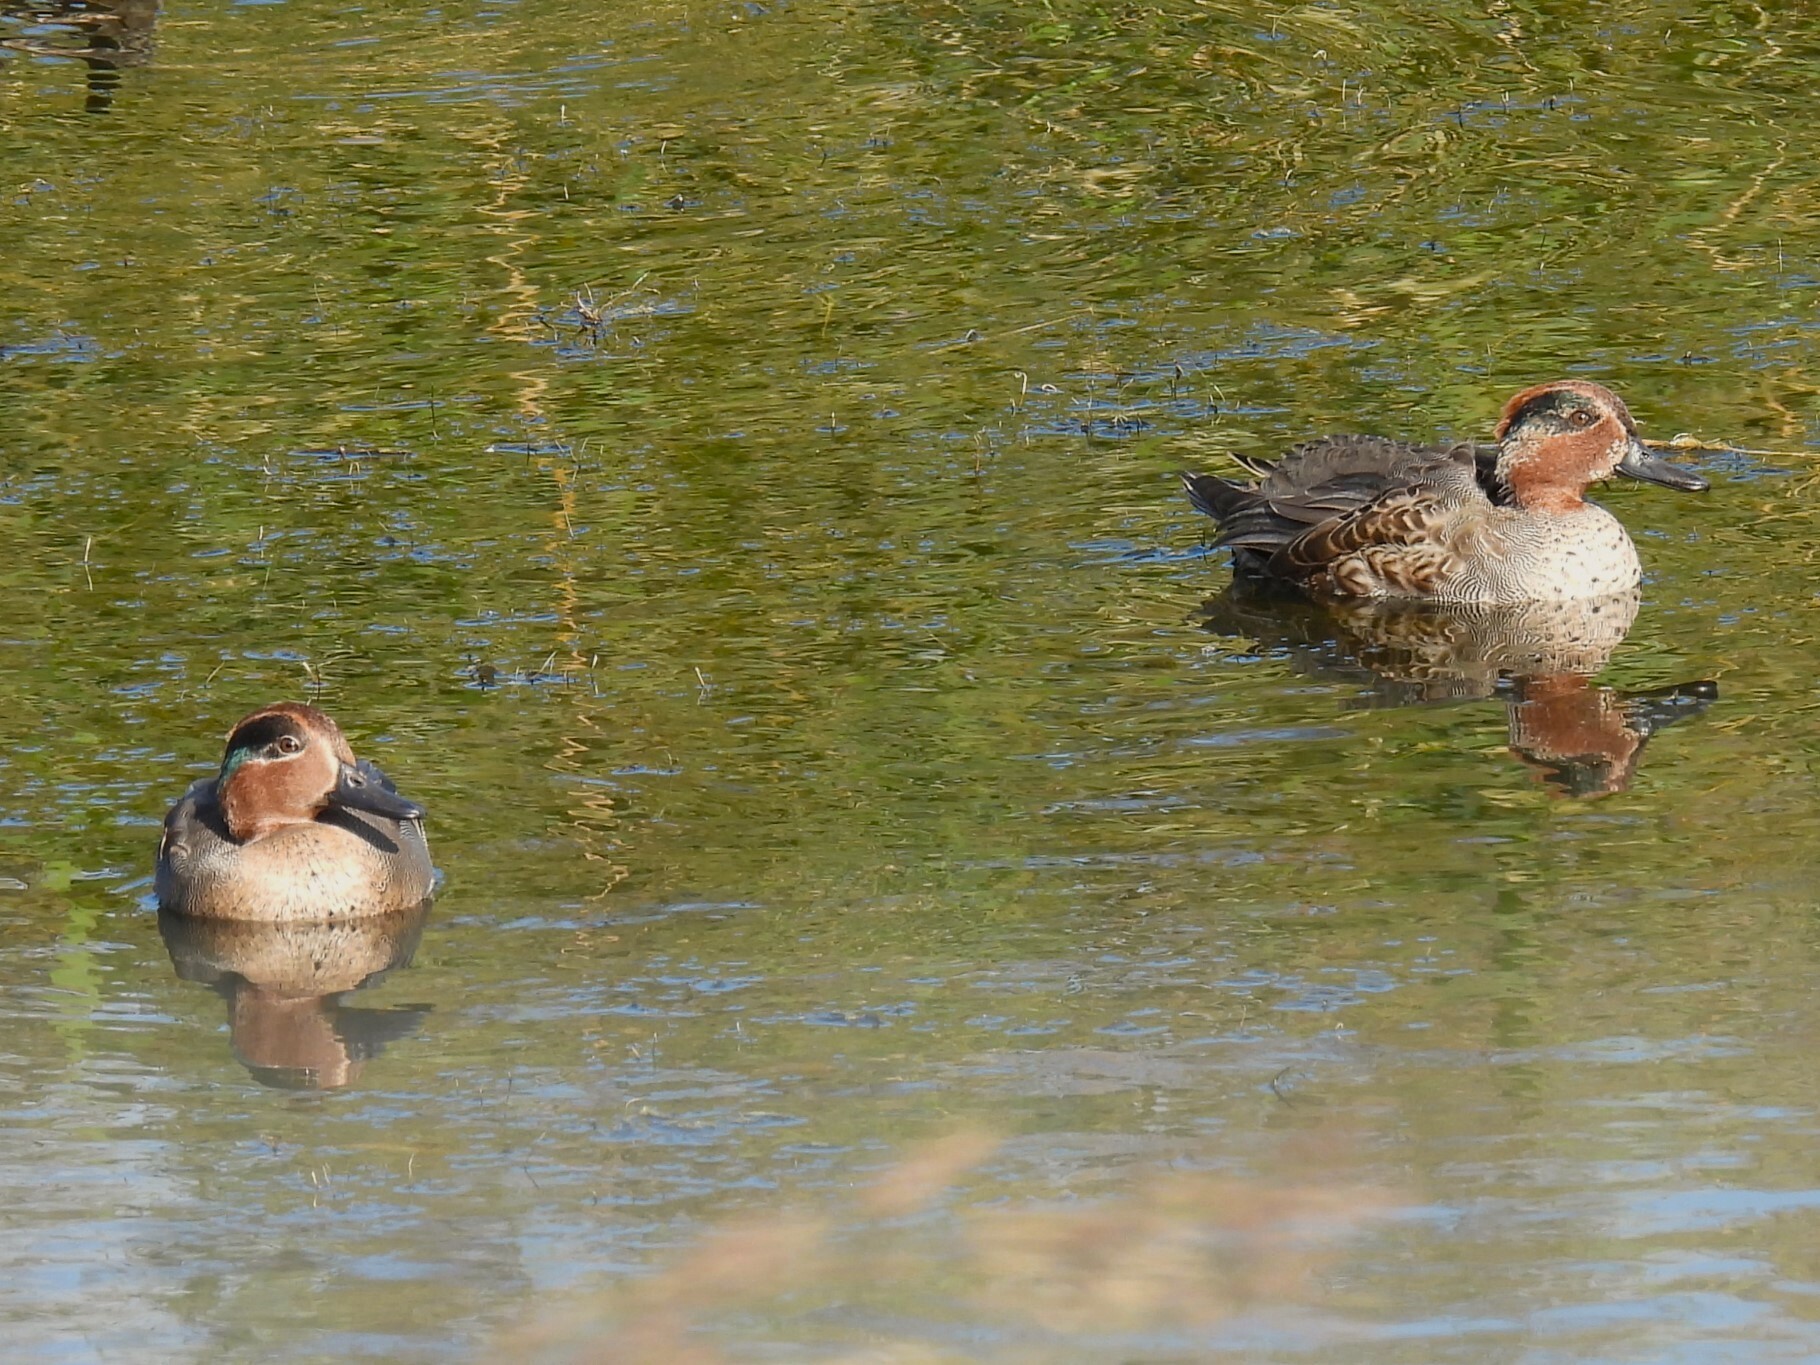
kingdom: Animalia
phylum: Chordata
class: Aves
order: Anseriformes
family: Anatidae
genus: Anas
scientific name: Anas crecca
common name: Eurasian teal
